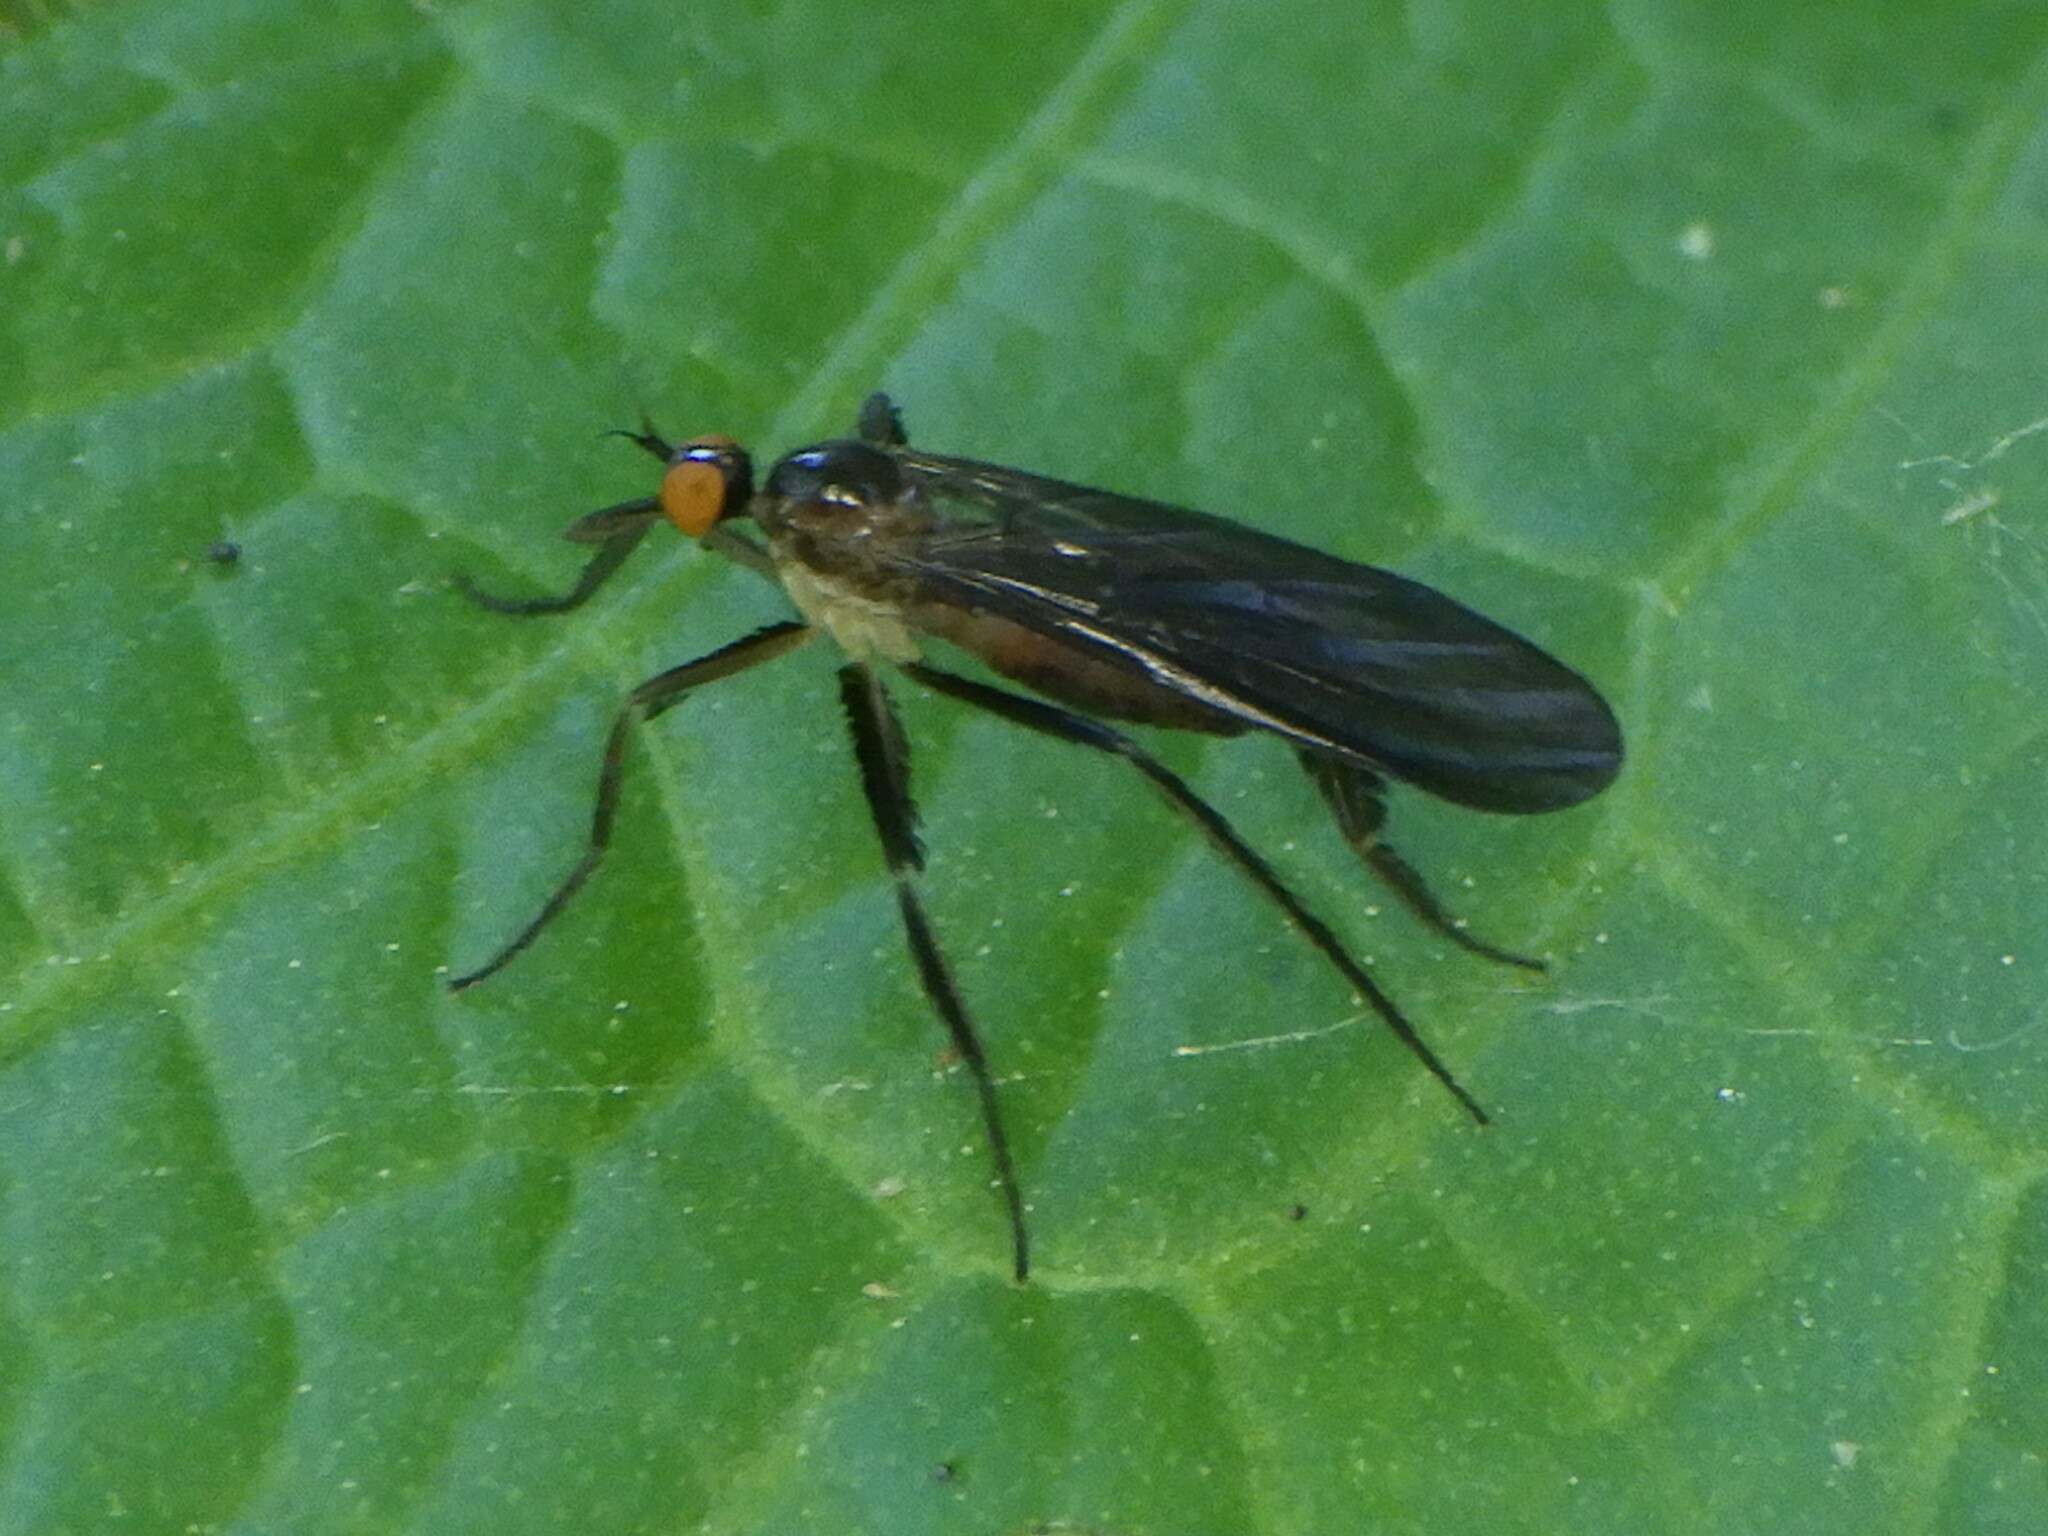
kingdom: Animalia
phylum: Arthropoda
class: Insecta
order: Diptera
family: Empididae
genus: Rhamphomyia
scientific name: Rhamphomyia longicauda
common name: Long-tailed dance fly
